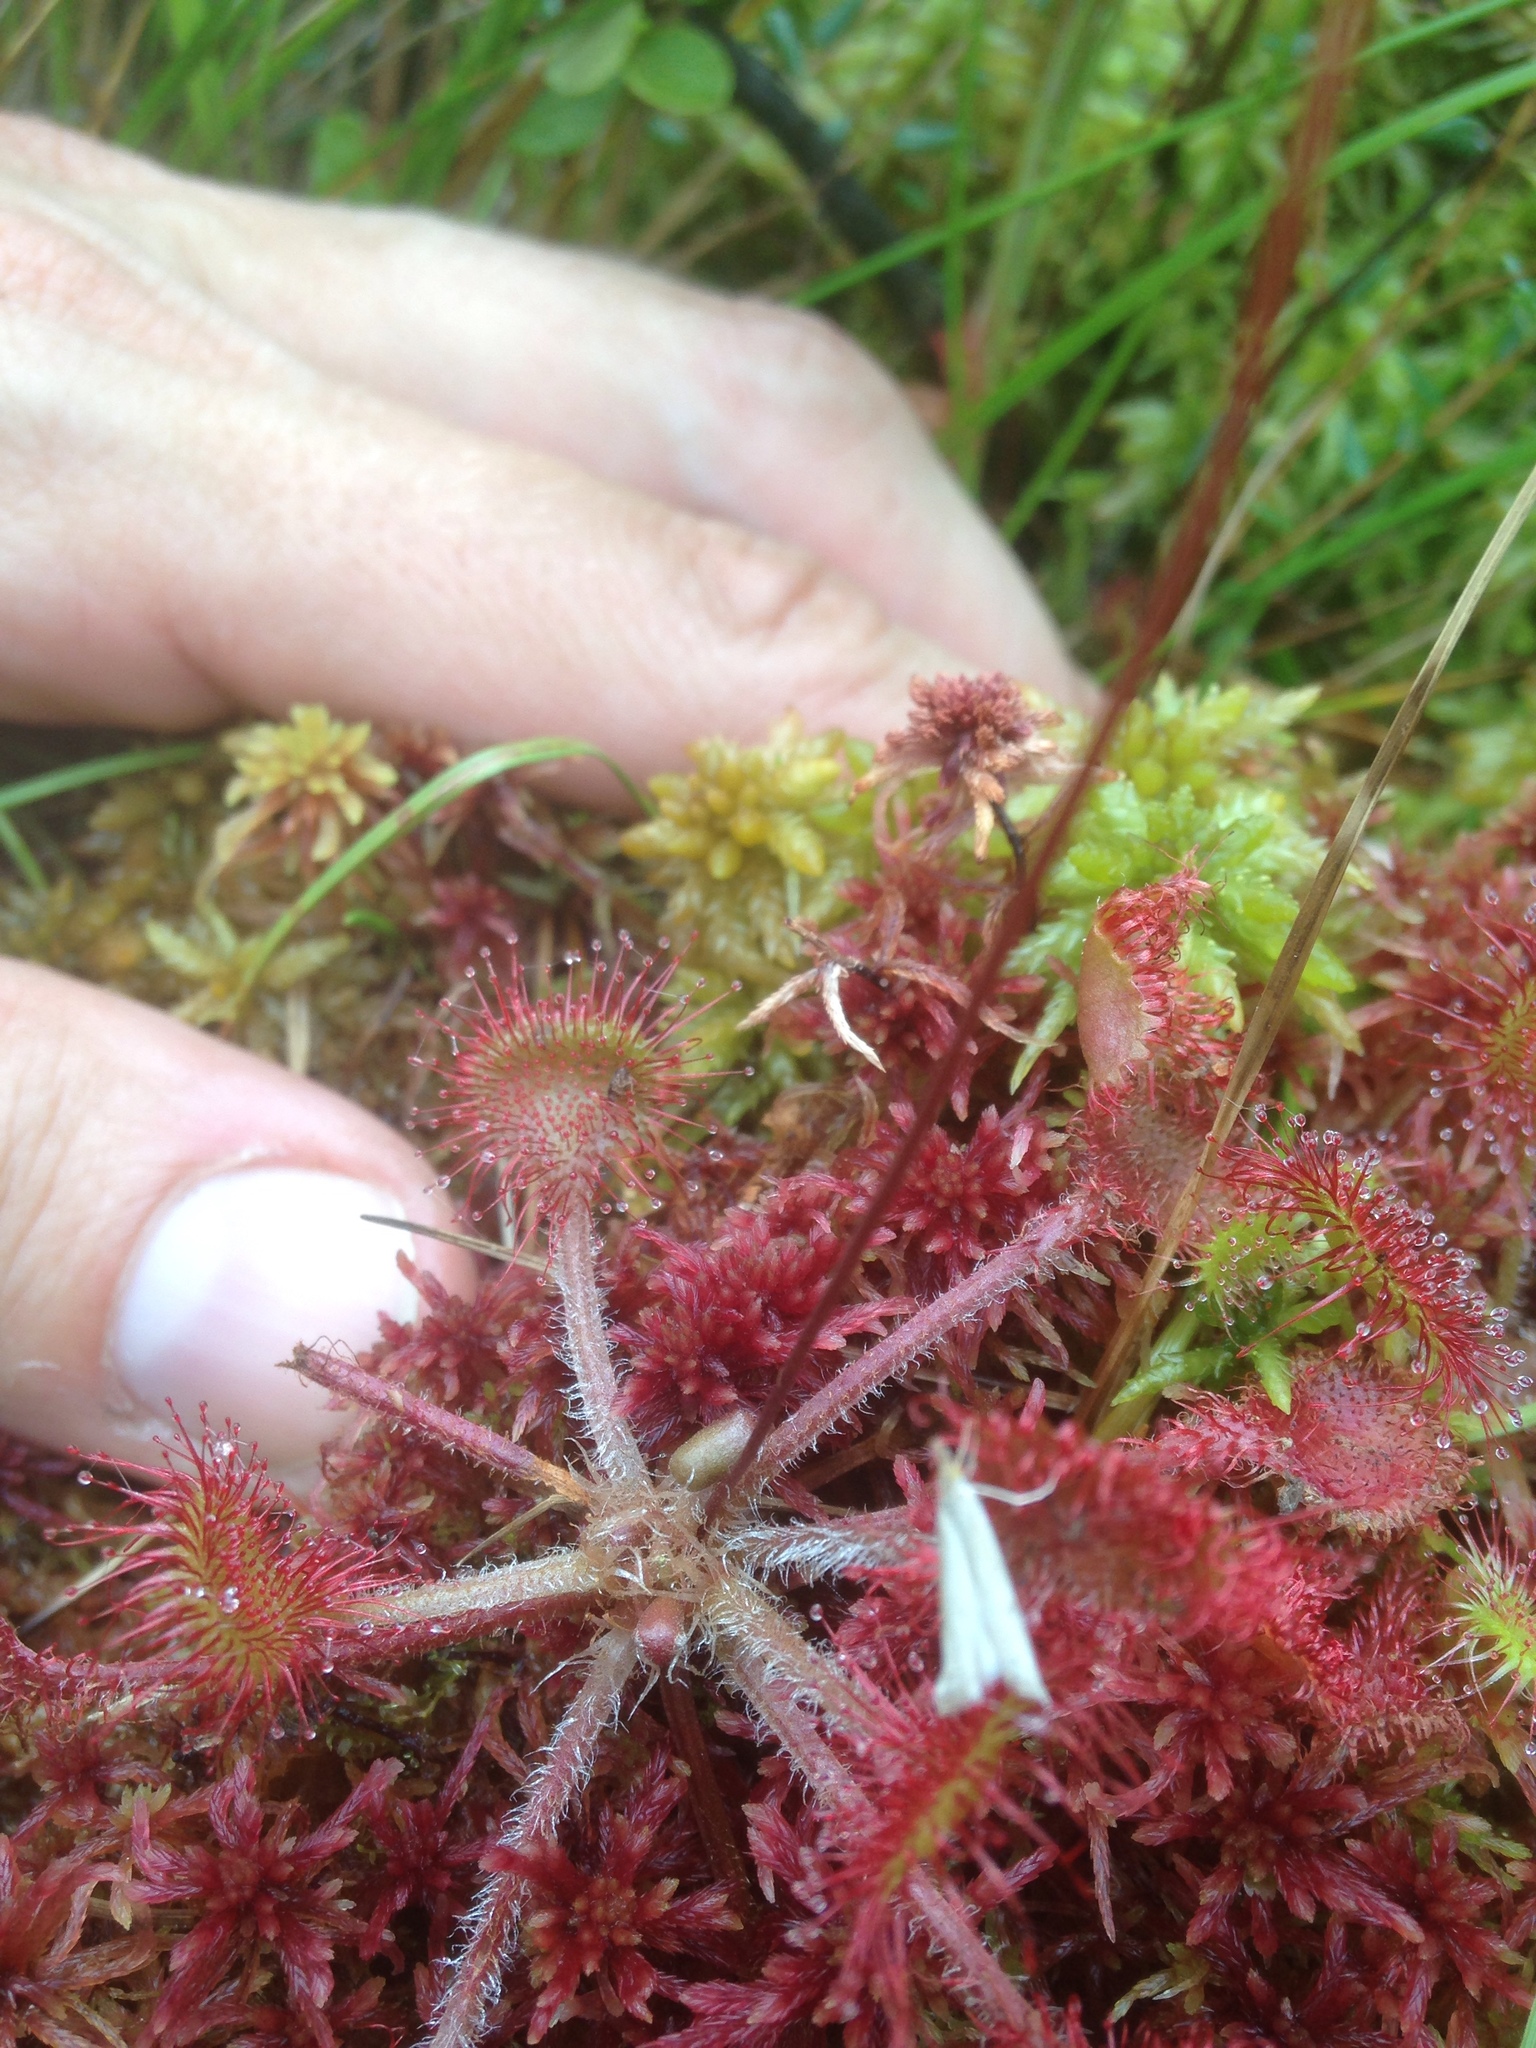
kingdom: Plantae
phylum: Tracheophyta
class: Magnoliopsida
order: Caryophyllales
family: Droseraceae
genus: Drosera
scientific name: Drosera rotundifolia
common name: Round-leaved sundew
